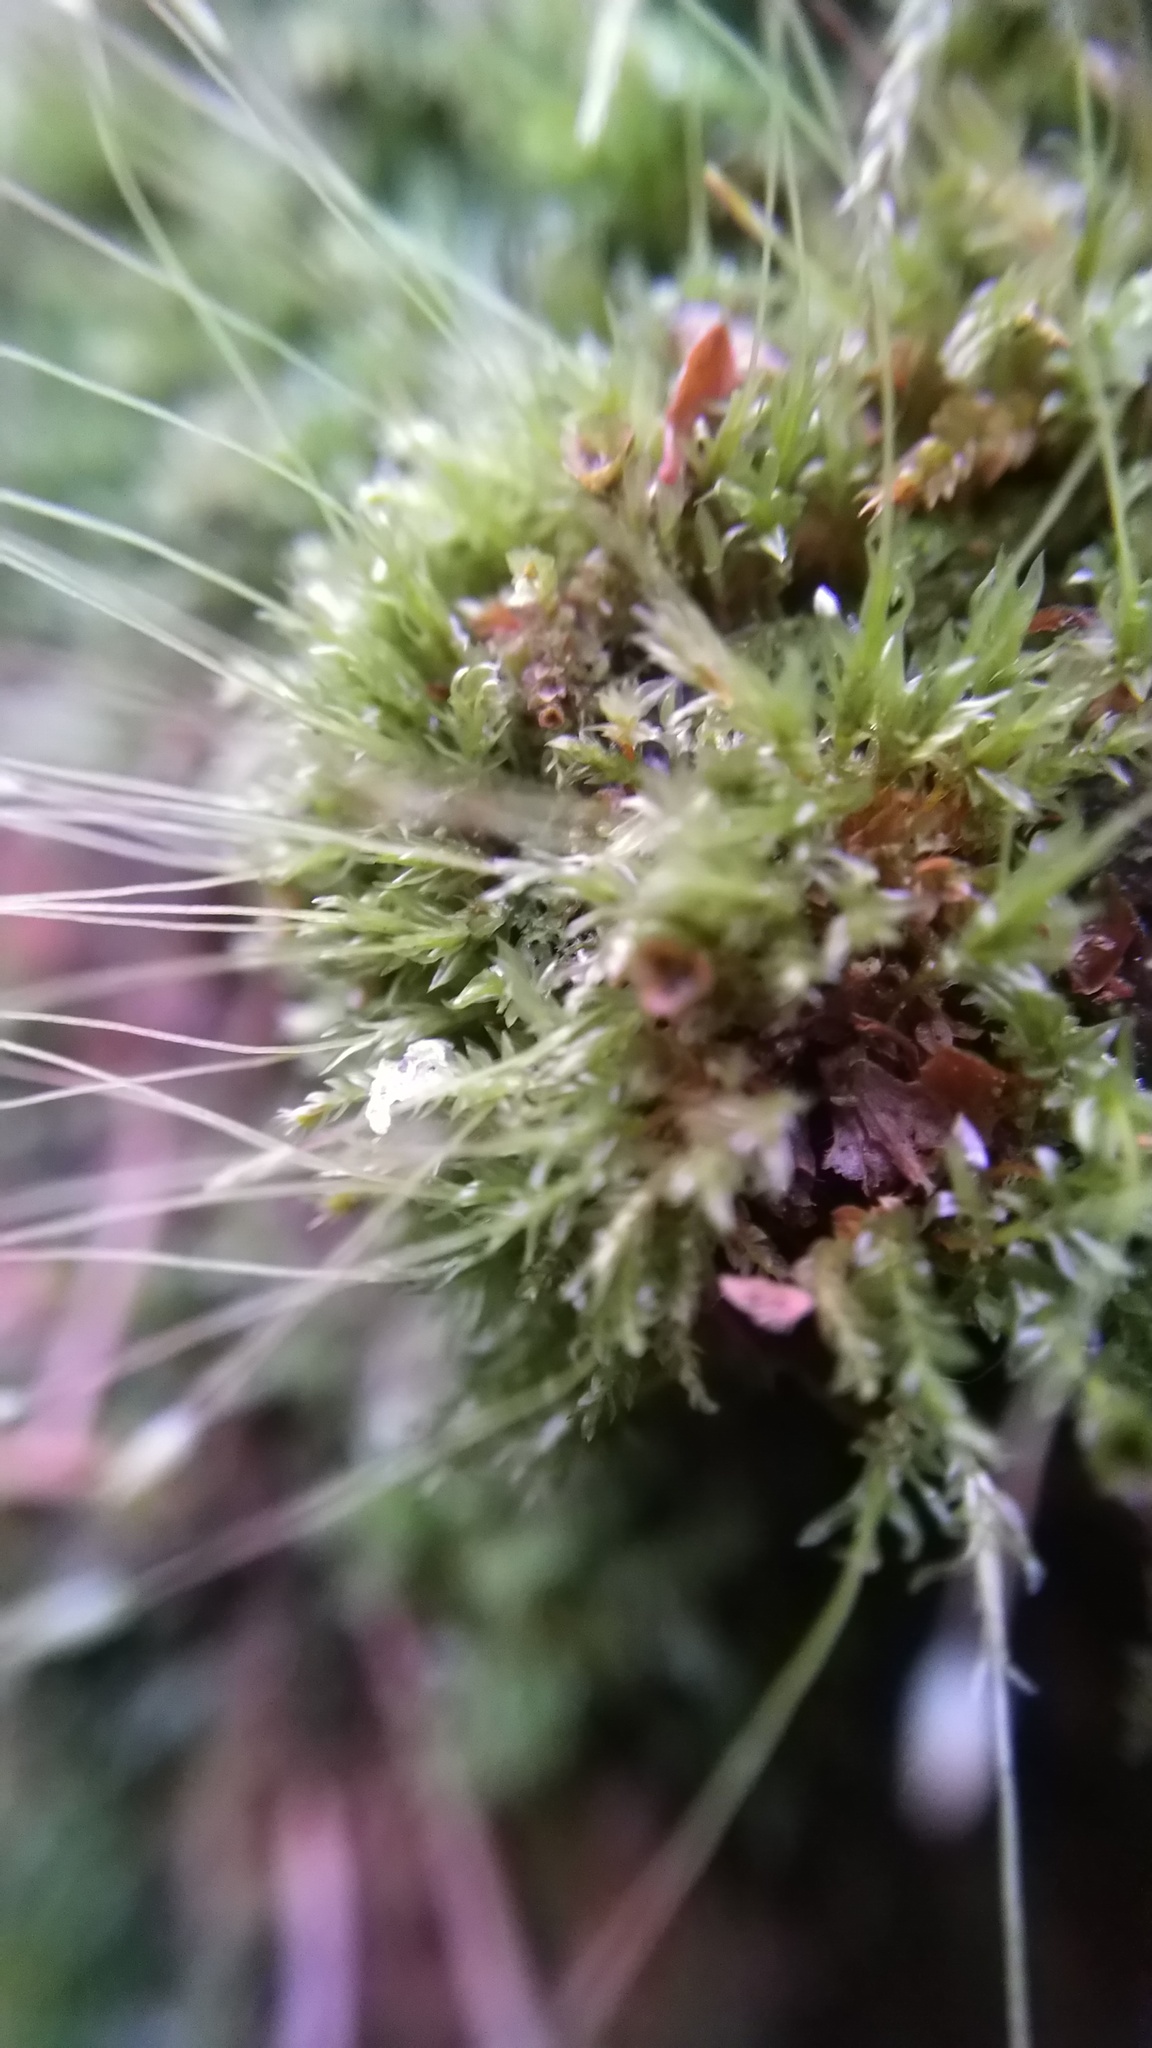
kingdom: Plantae
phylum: Bryophyta
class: Polytrichopsida
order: Tetraphidales
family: Tetraphidaceae
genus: Tetraphis
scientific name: Tetraphis pellucida
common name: Common four-toothed moss
